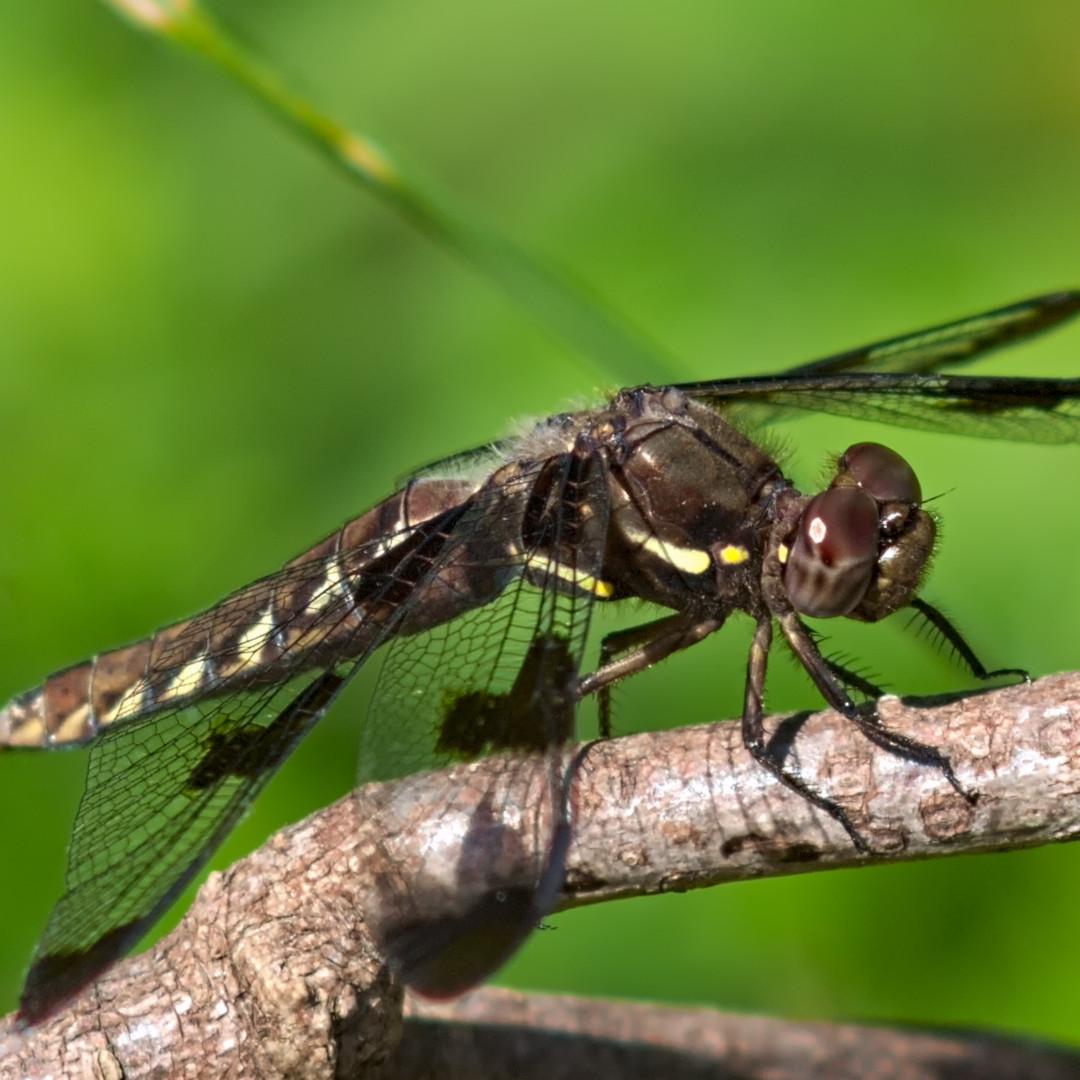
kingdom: Animalia
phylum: Arthropoda
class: Insecta
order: Odonata
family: Libellulidae
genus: Plathemis
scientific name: Plathemis lydia
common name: Common whitetail
